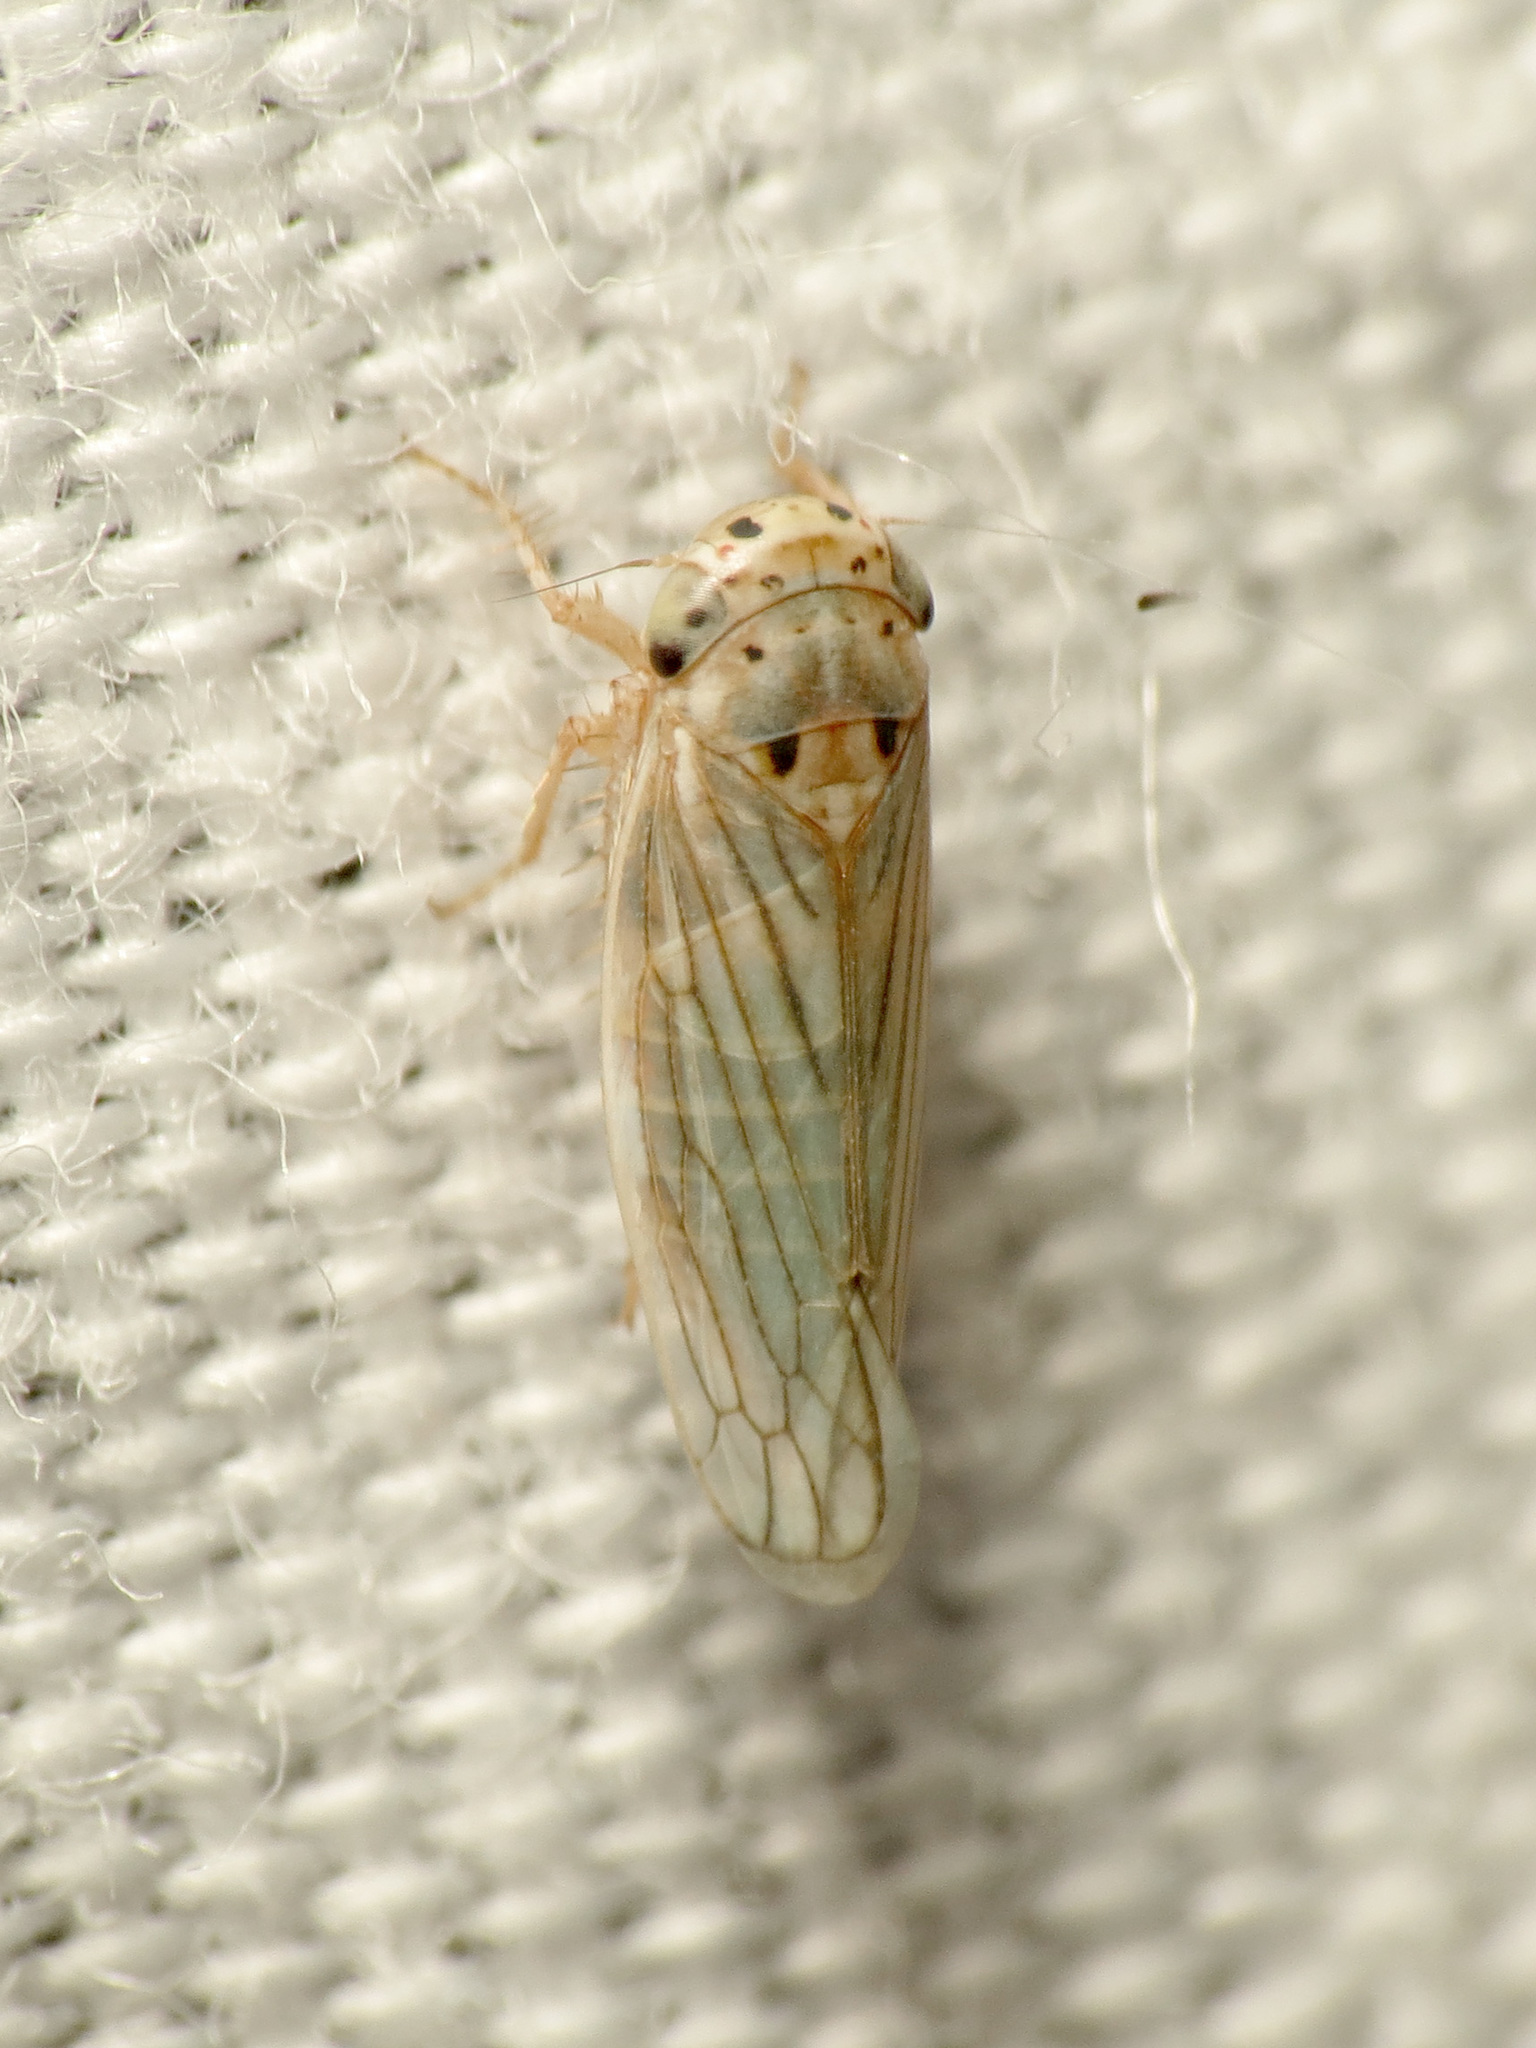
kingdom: Animalia
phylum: Arthropoda
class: Insecta
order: Hemiptera
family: Cicadellidae
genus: Exitianus
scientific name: Exitianus exitiosus
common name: Gray lawn leafhopper
